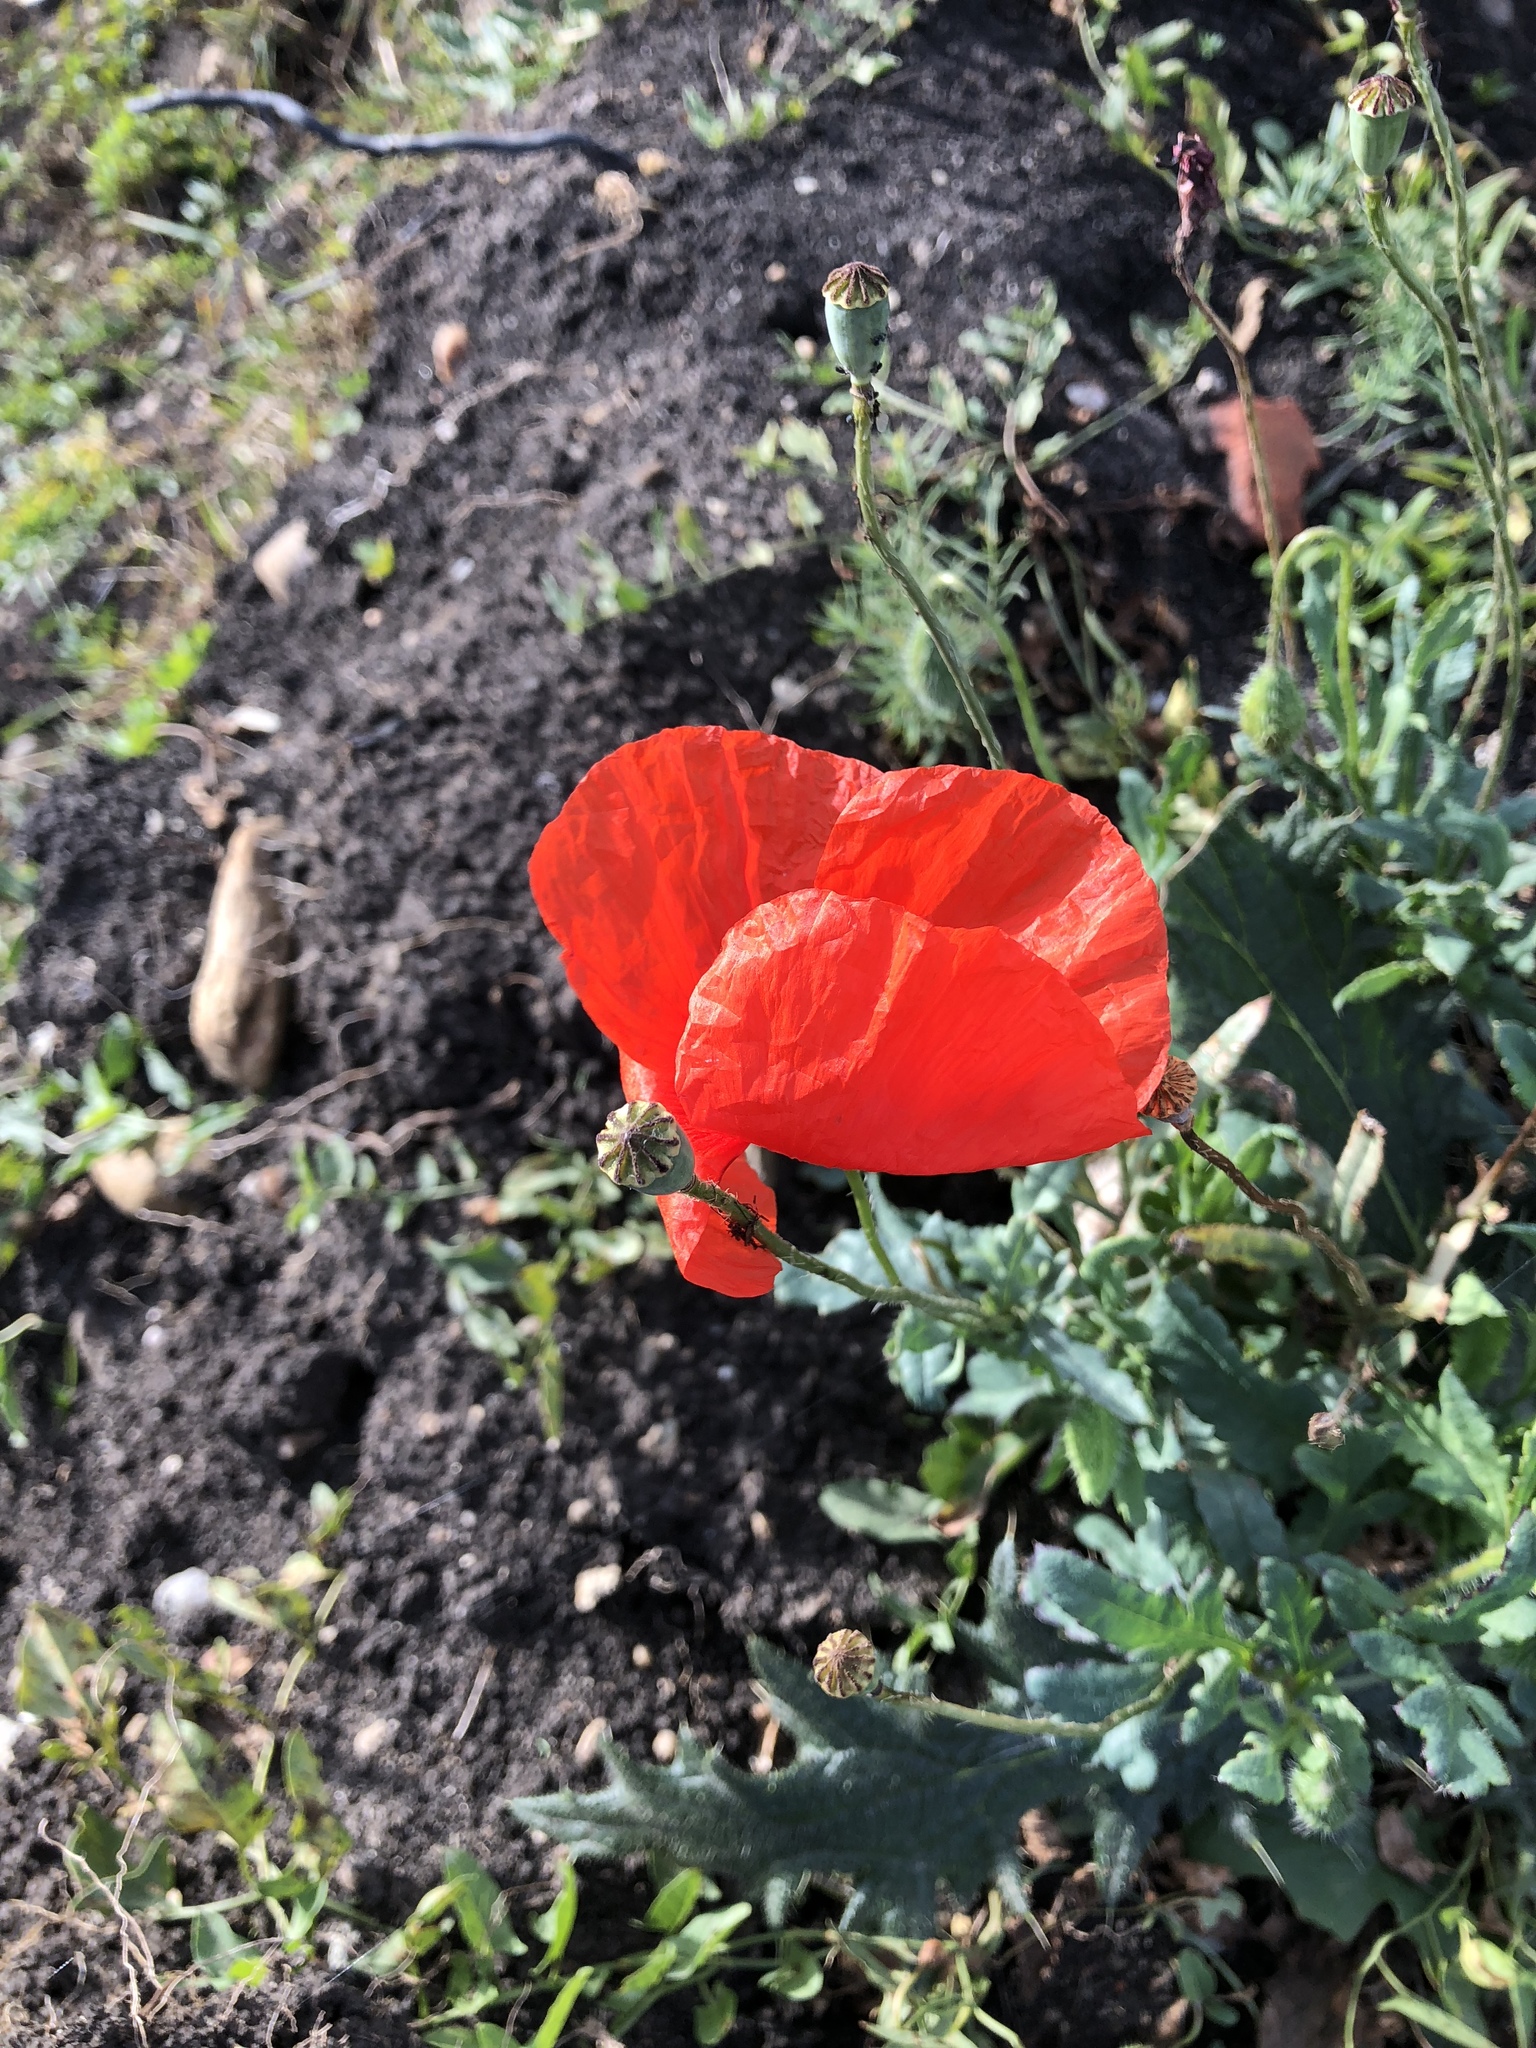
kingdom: Plantae
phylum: Tracheophyta
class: Magnoliopsida
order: Ranunculales
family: Papaveraceae
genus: Papaver
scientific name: Papaver rhoeas
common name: Corn poppy
